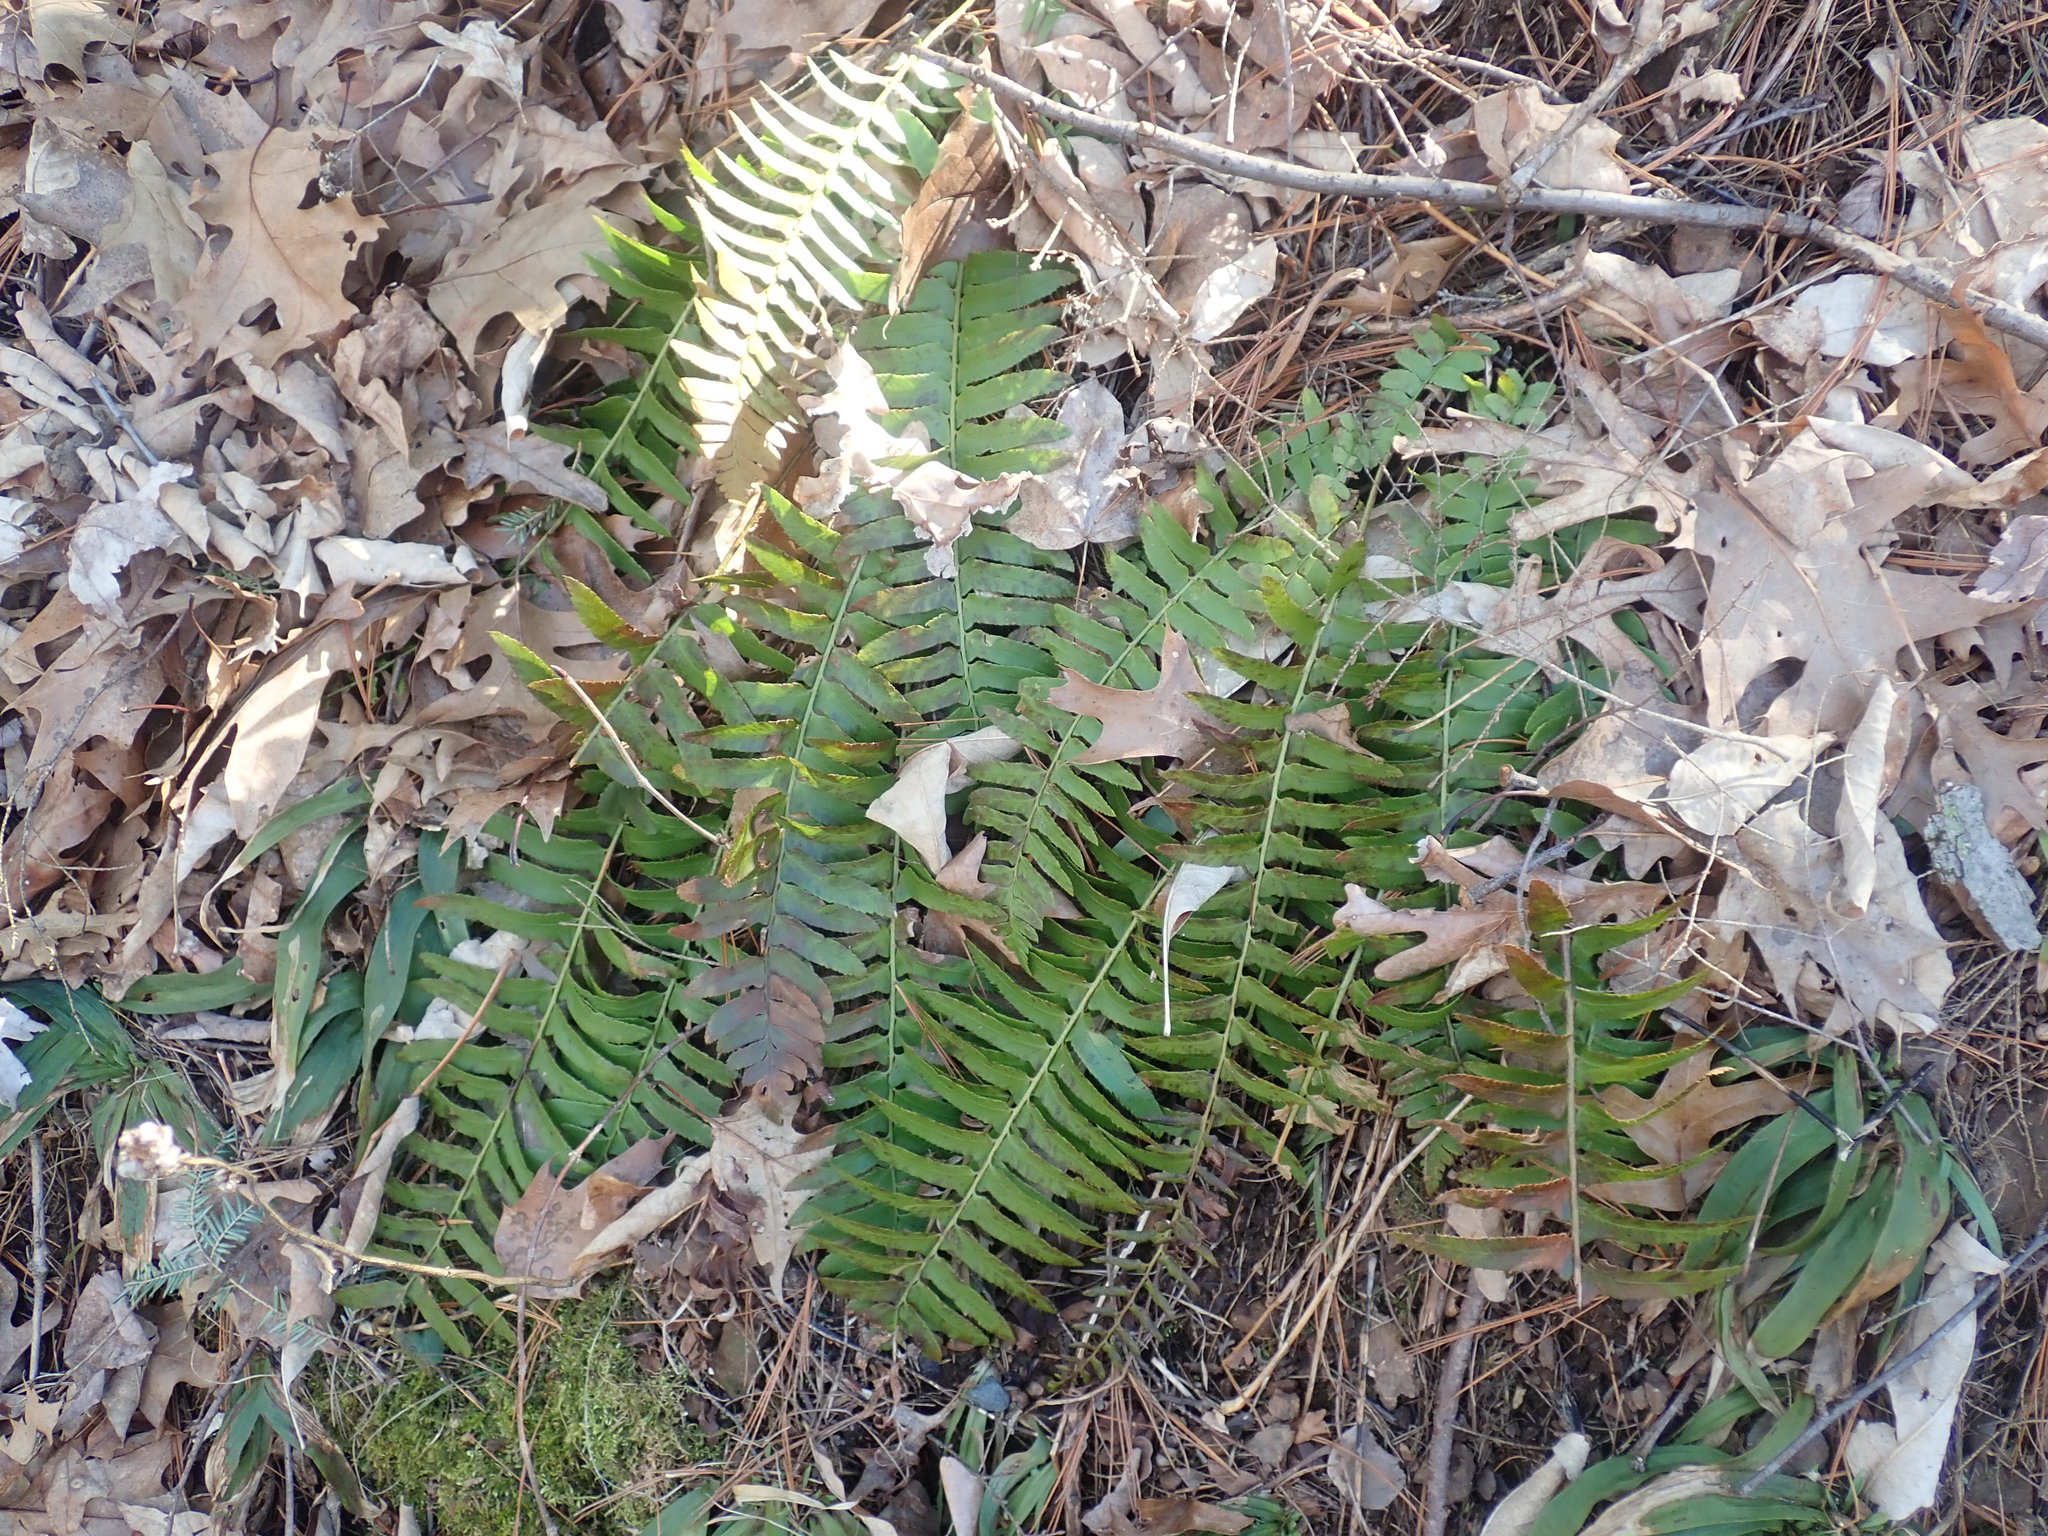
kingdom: Plantae
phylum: Tracheophyta
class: Polypodiopsida
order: Polypodiales
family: Dryopteridaceae
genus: Polystichum
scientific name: Polystichum acrostichoides
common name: Christmas fern
